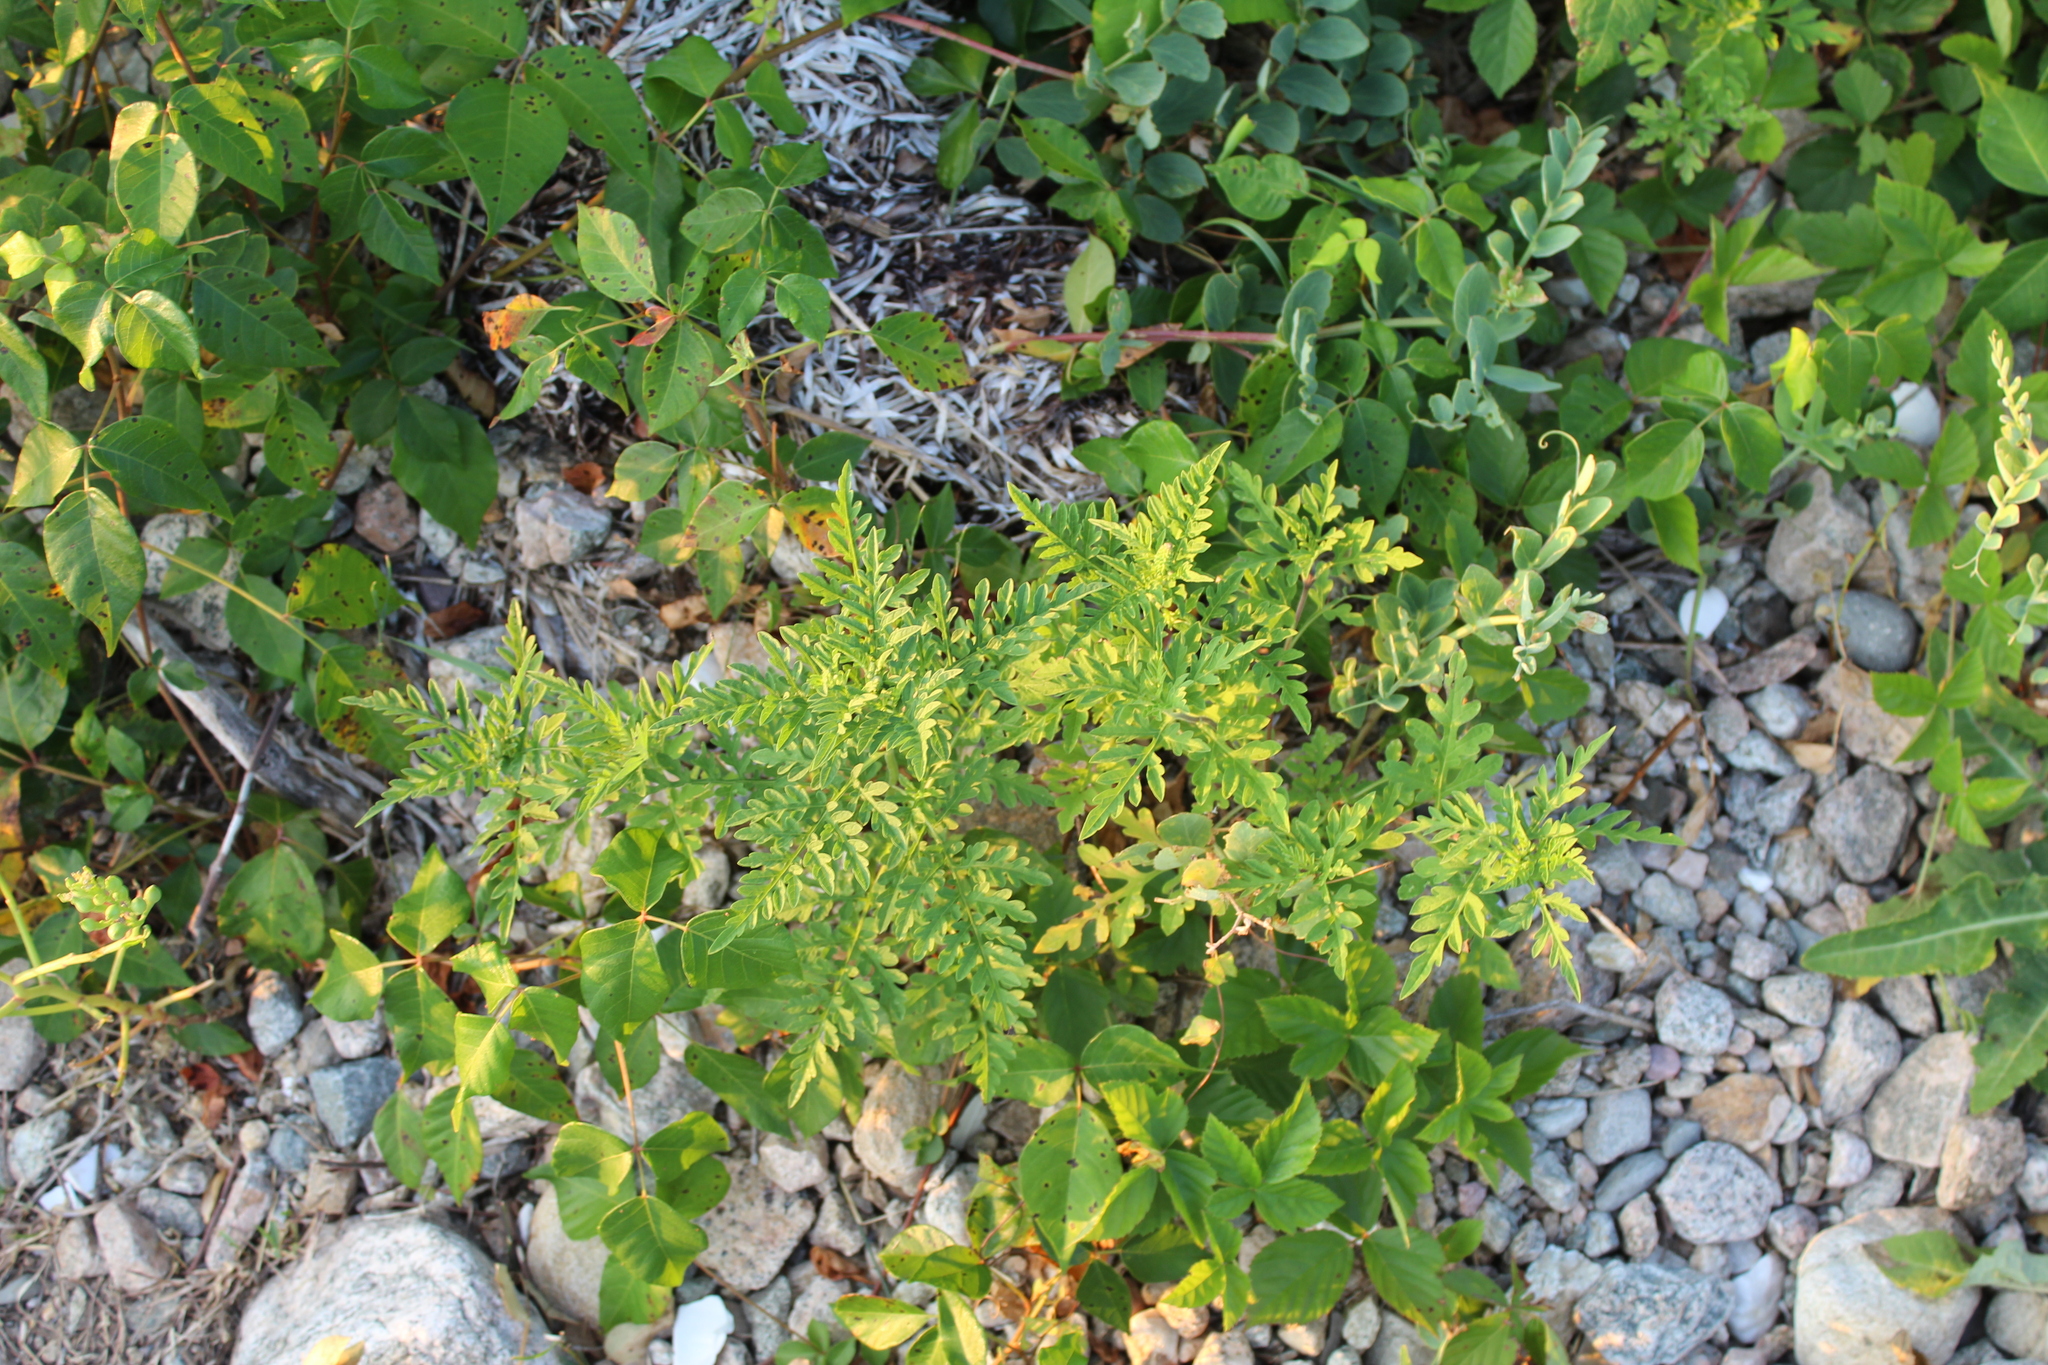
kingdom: Plantae
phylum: Tracheophyta
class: Magnoliopsida
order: Asterales
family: Asteraceae
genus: Ambrosia
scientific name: Ambrosia artemisiifolia
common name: Annual ragweed
